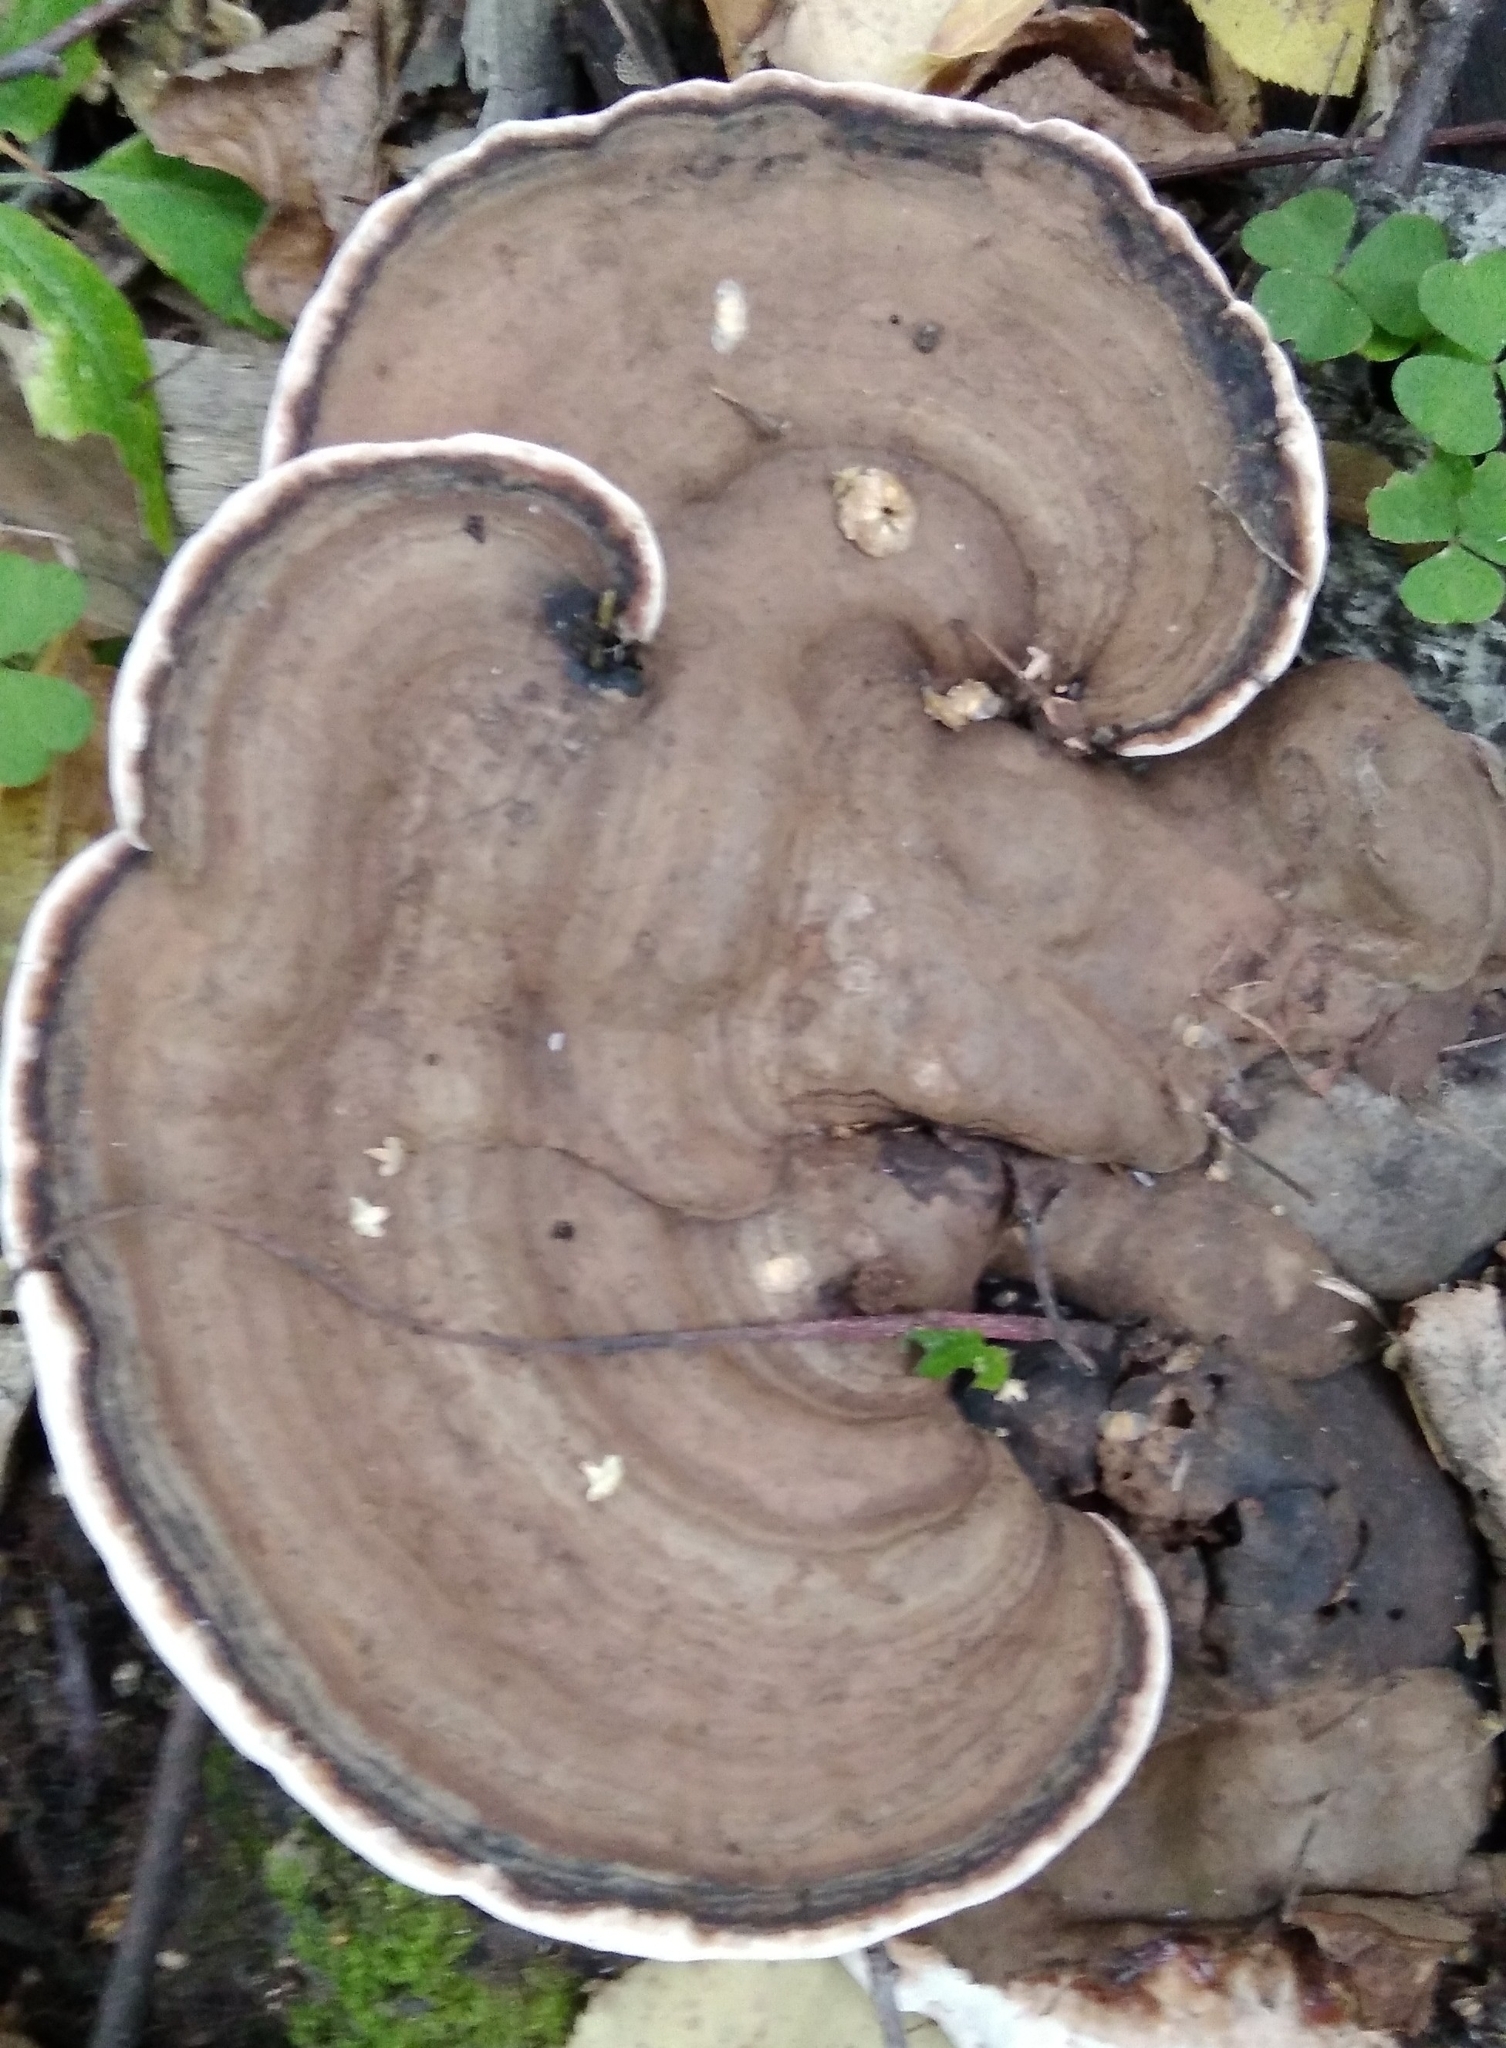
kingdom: Fungi
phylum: Basidiomycota
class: Agaricomycetes
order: Polyporales
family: Polyporaceae
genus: Ganoderma
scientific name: Ganoderma applanatum
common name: Artist's bracket
